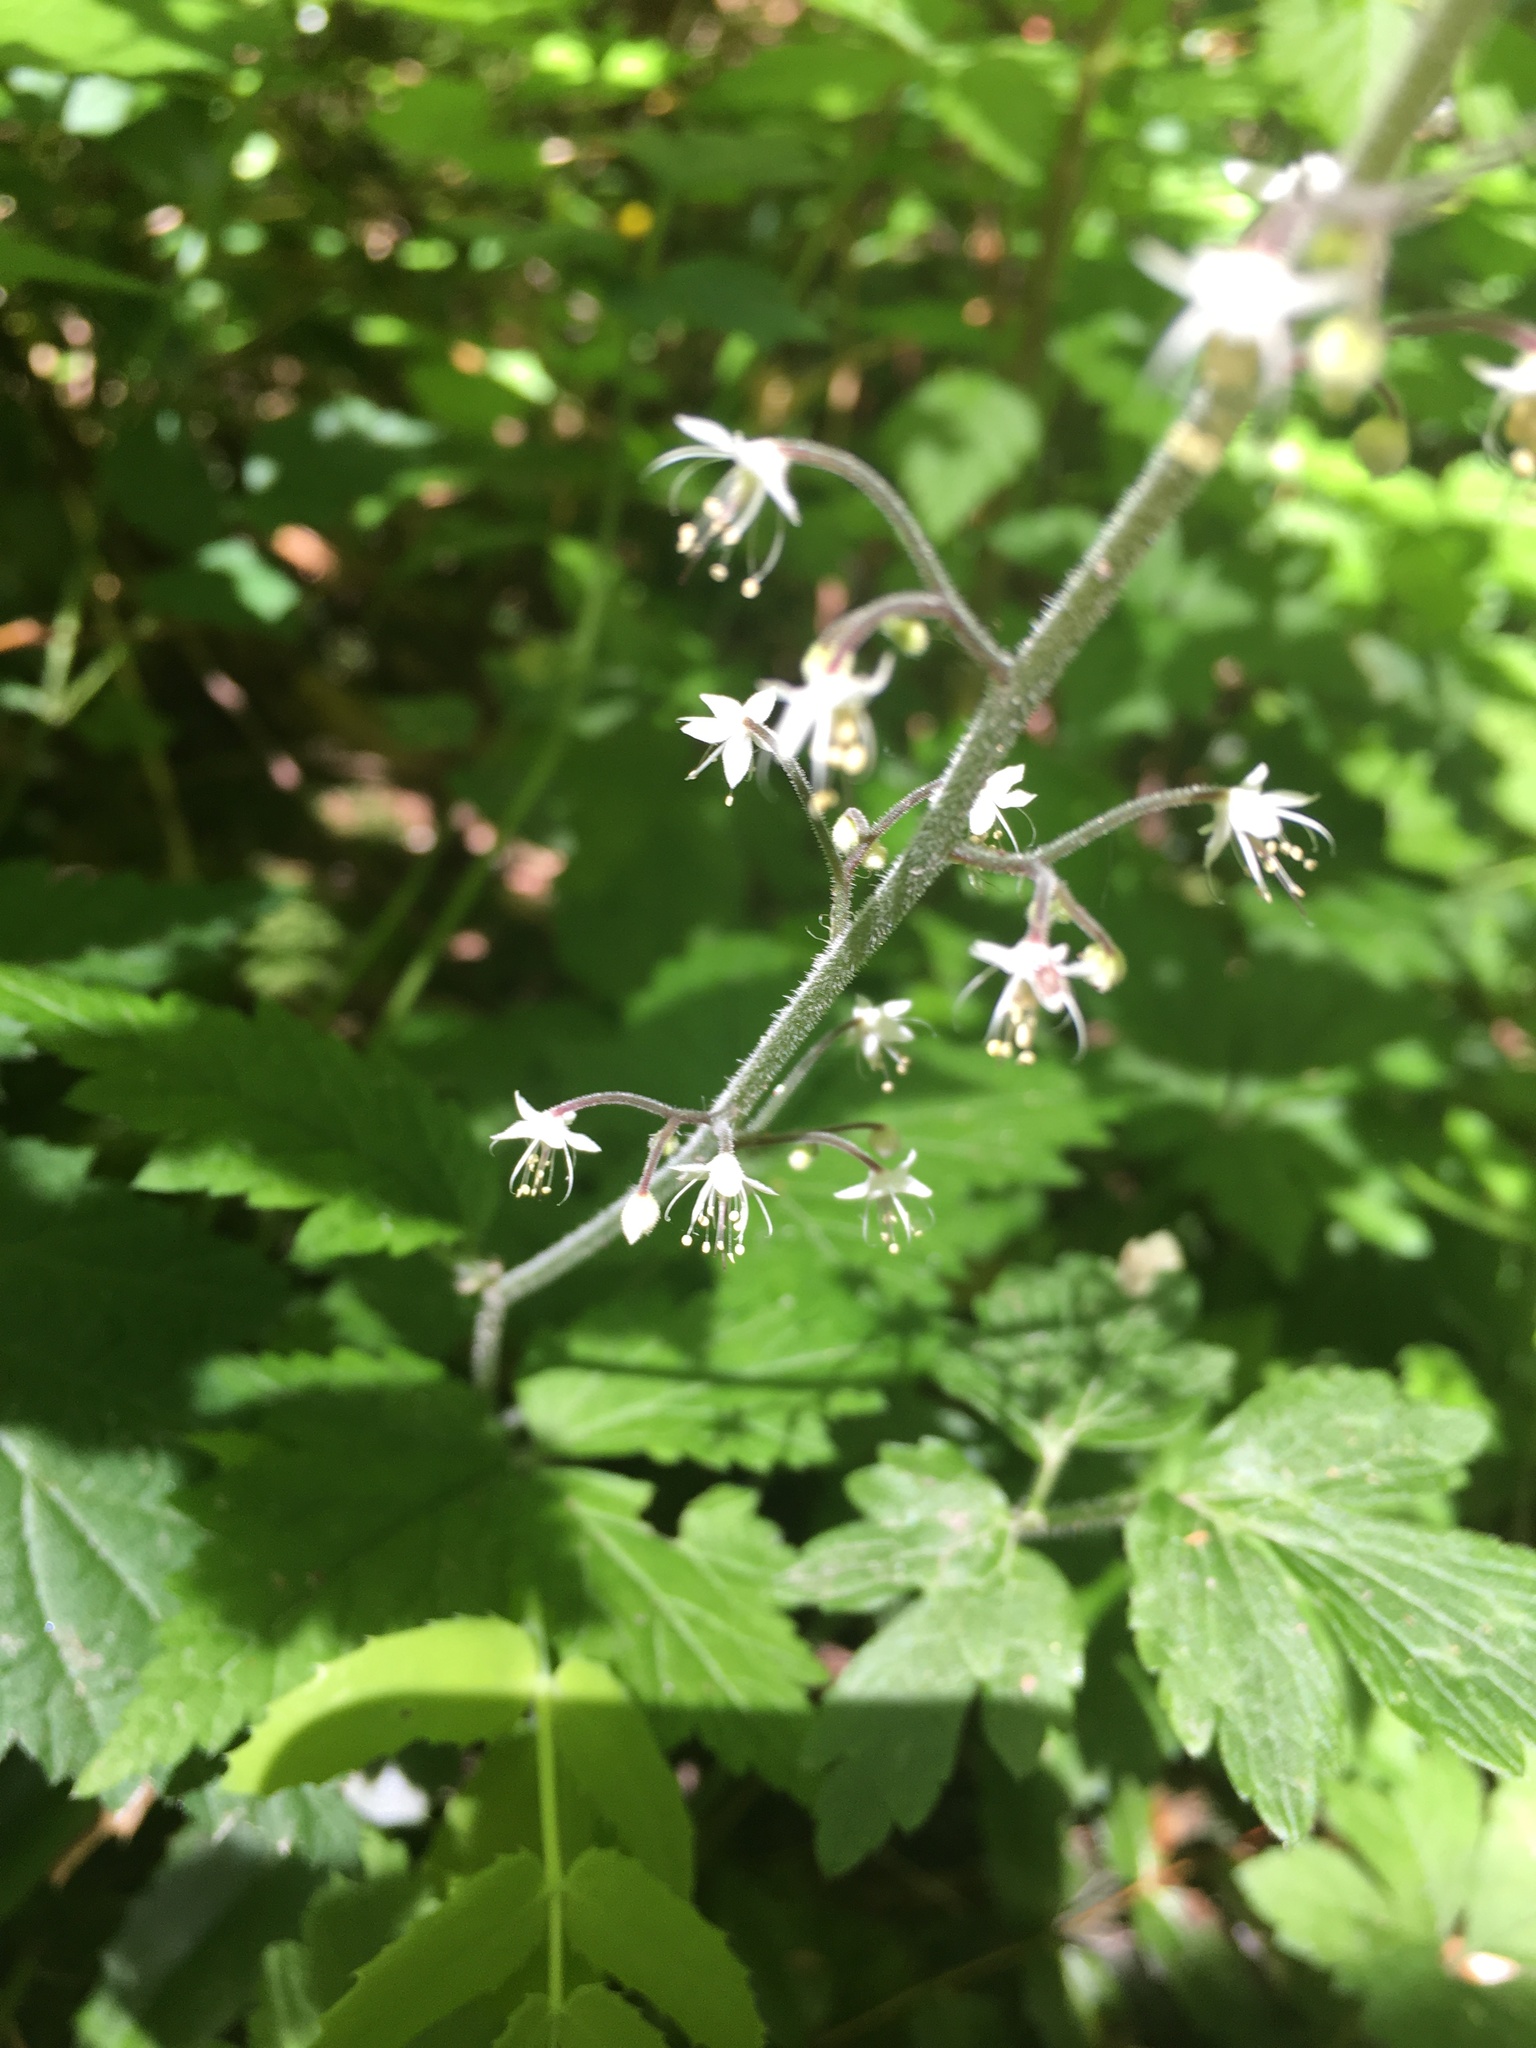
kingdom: Plantae
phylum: Tracheophyta
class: Magnoliopsida
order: Saxifragales
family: Saxifragaceae
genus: Tiarella
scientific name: Tiarella trifoliata
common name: Sugar-scoop
